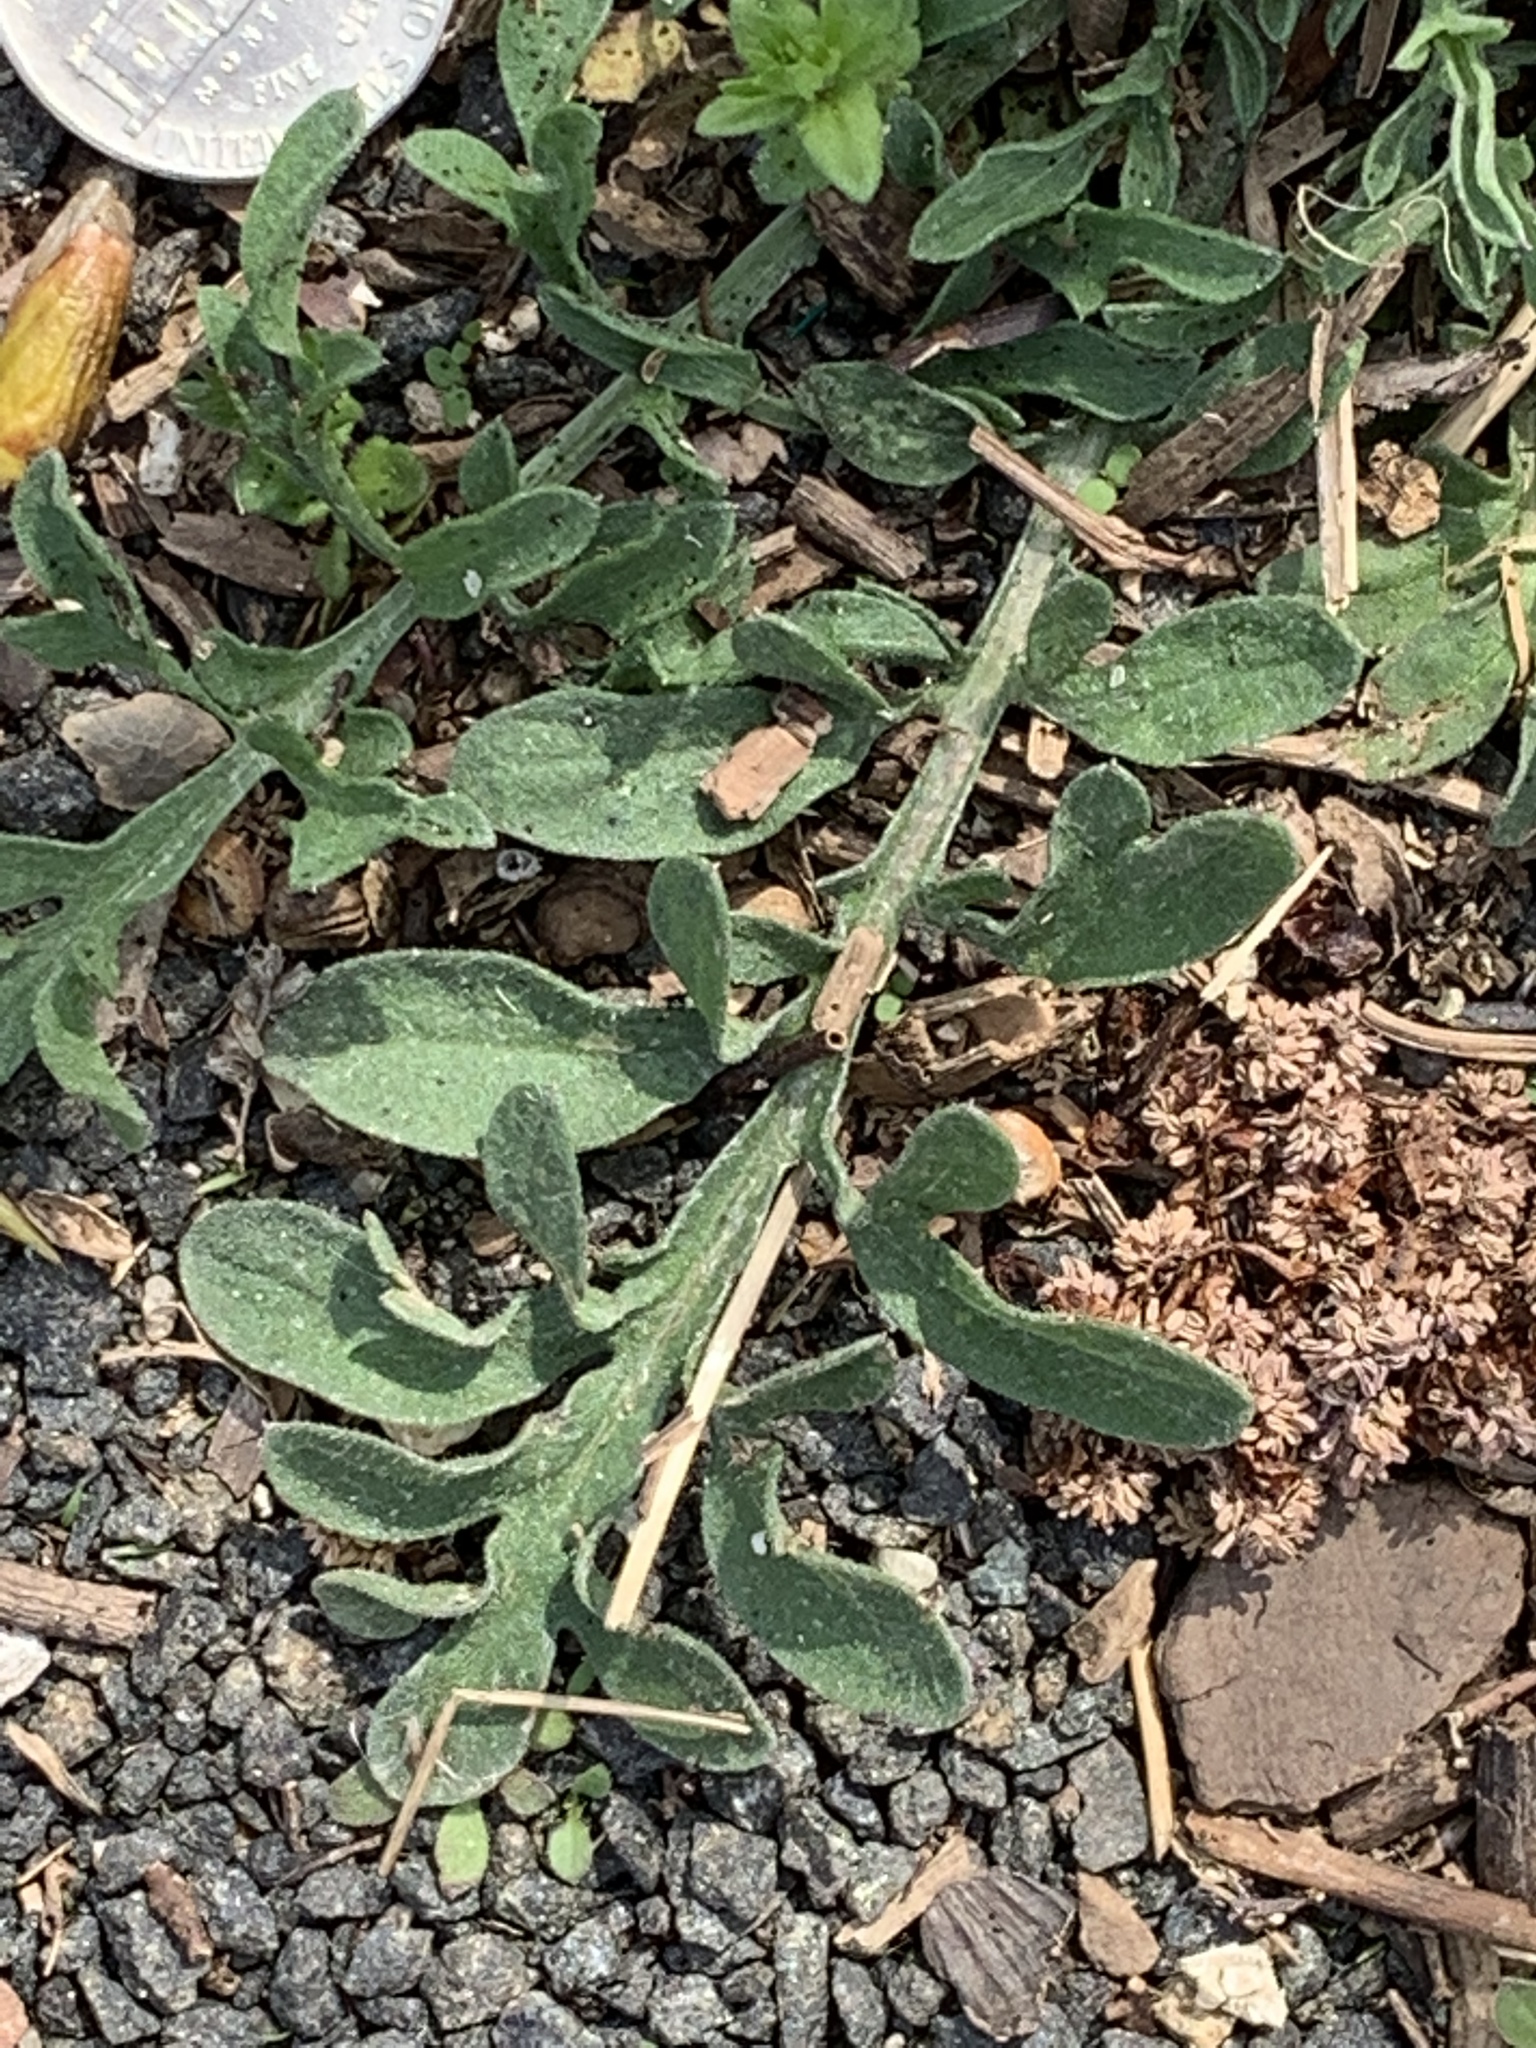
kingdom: Plantae
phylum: Tracheophyta
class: Magnoliopsida
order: Asterales
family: Asteraceae
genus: Centaurea
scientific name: Centaurea stoebe
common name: Spotted knapweed
